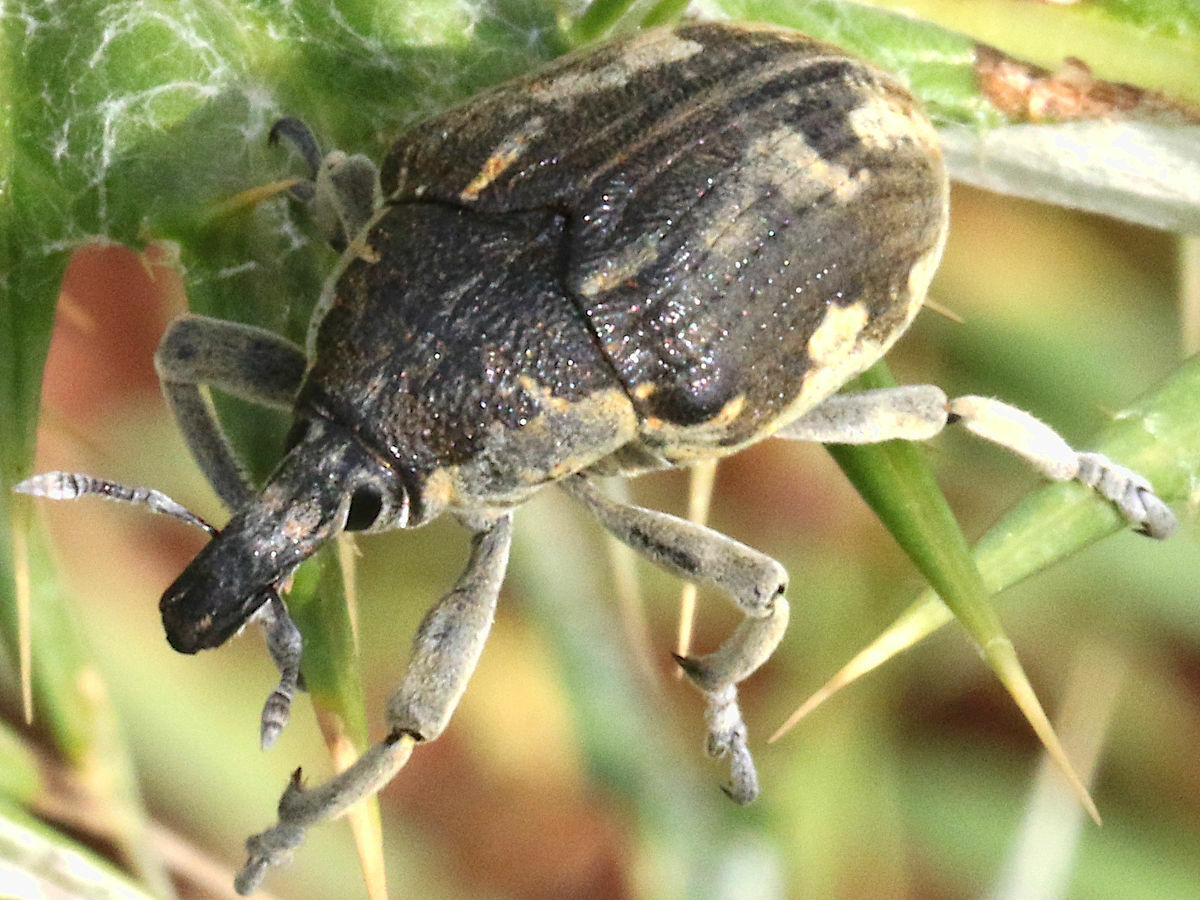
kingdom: Animalia
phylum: Arthropoda
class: Insecta
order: Coleoptera
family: Curculionidae
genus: Larinus
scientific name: Larinus onopordi
